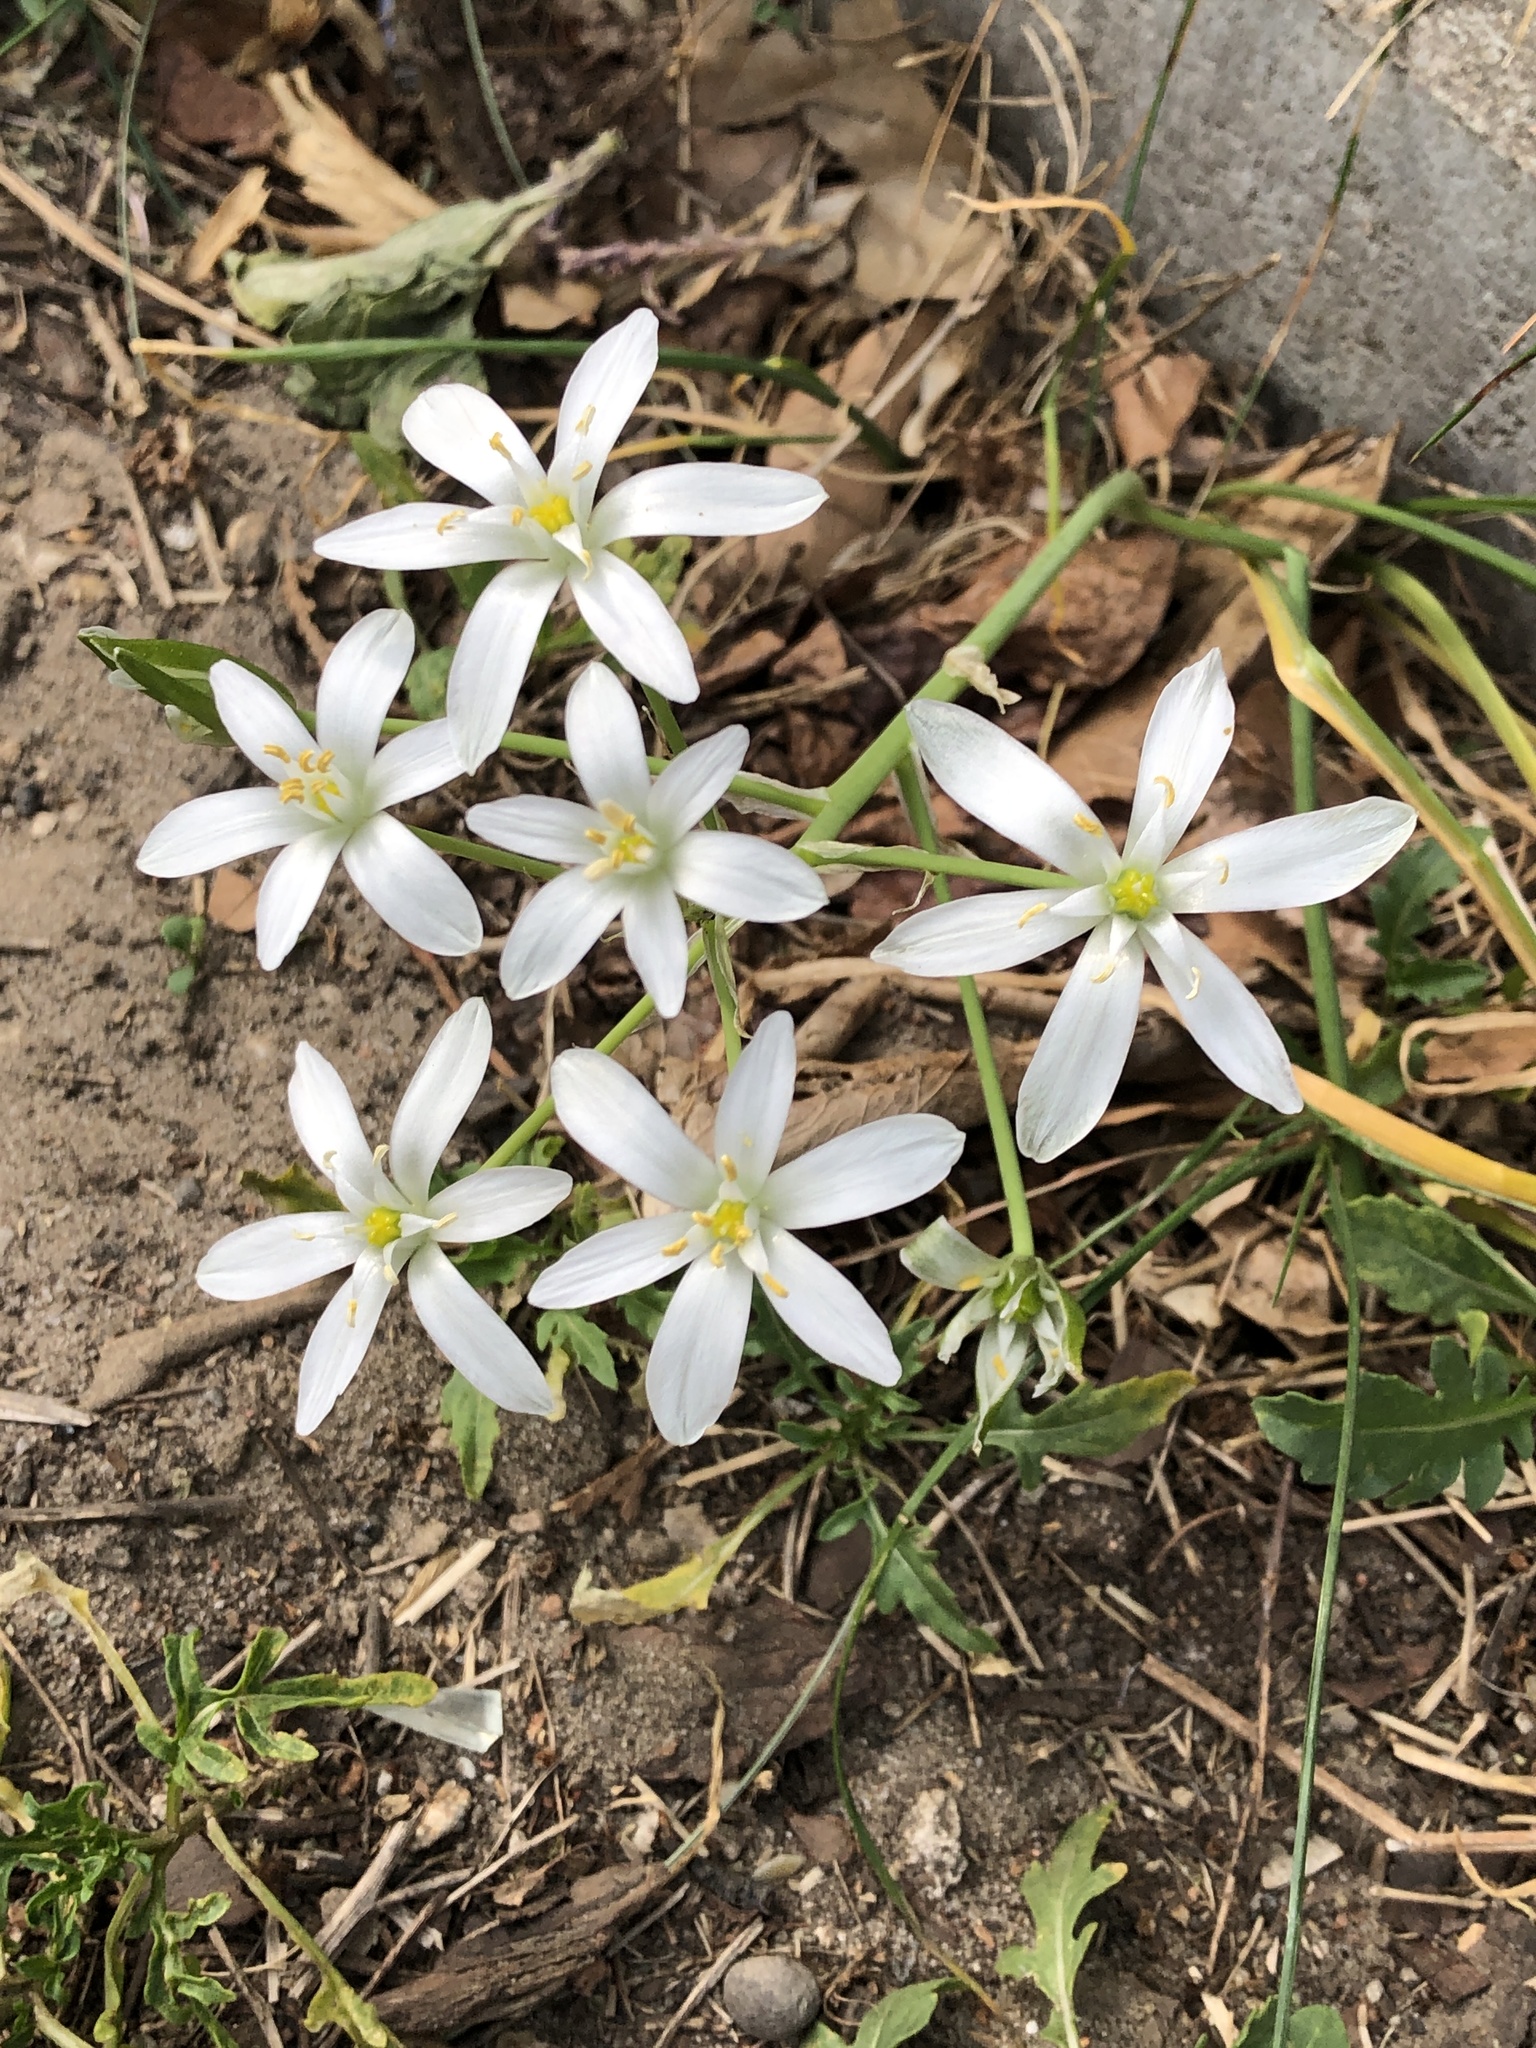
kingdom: Plantae
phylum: Tracheophyta
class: Liliopsida
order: Asparagales
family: Asparagaceae
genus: Ornithogalum
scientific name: Ornithogalum umbellatum
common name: Garden star-of-bethlehem
